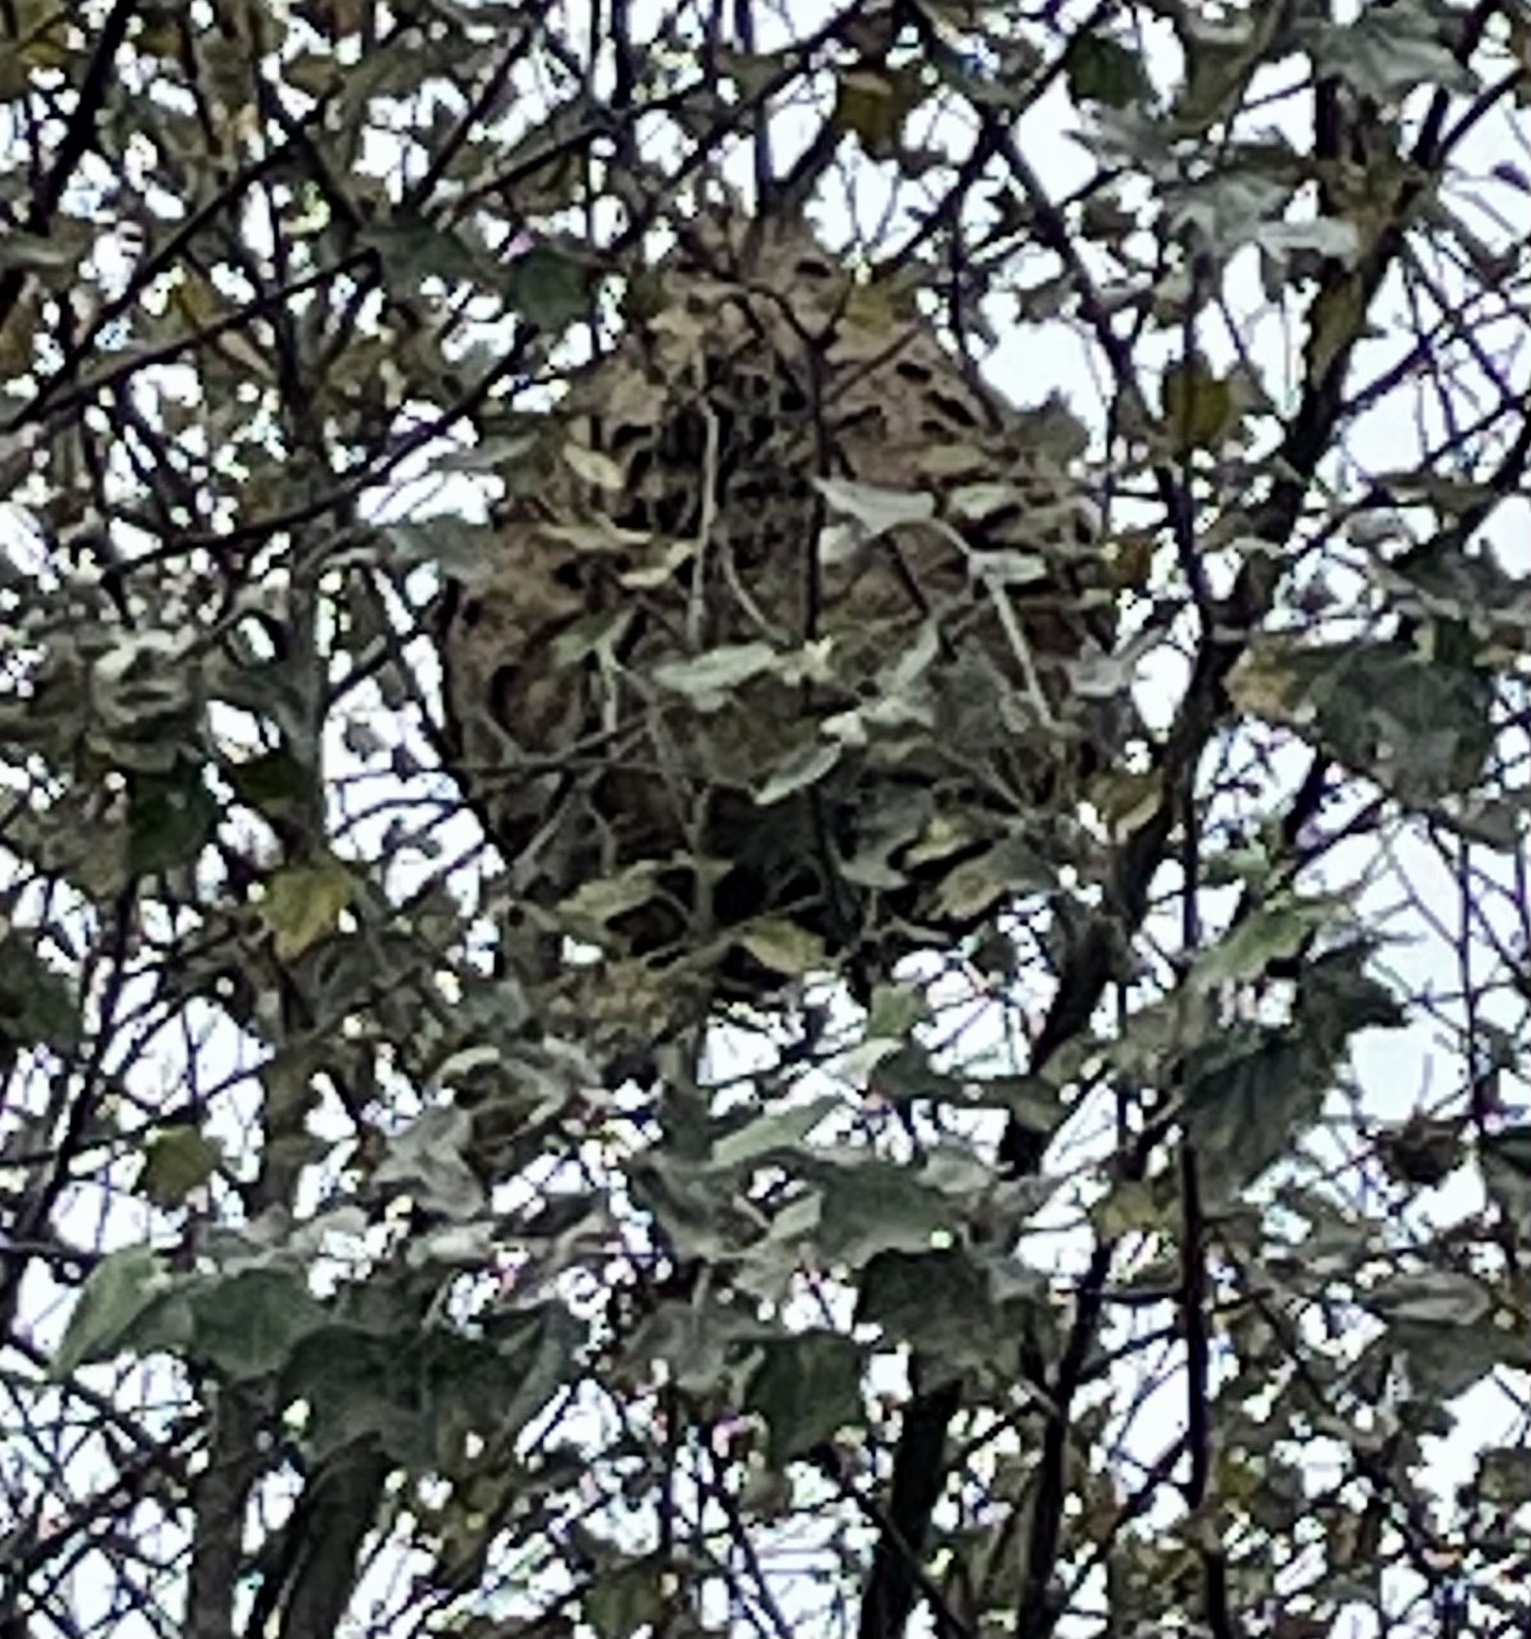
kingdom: Animalia
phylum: Arthropoda
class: Insecta
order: Hymenoptera
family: Vespidae
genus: Vespa
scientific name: Vespa velutina
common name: Asian hornet
